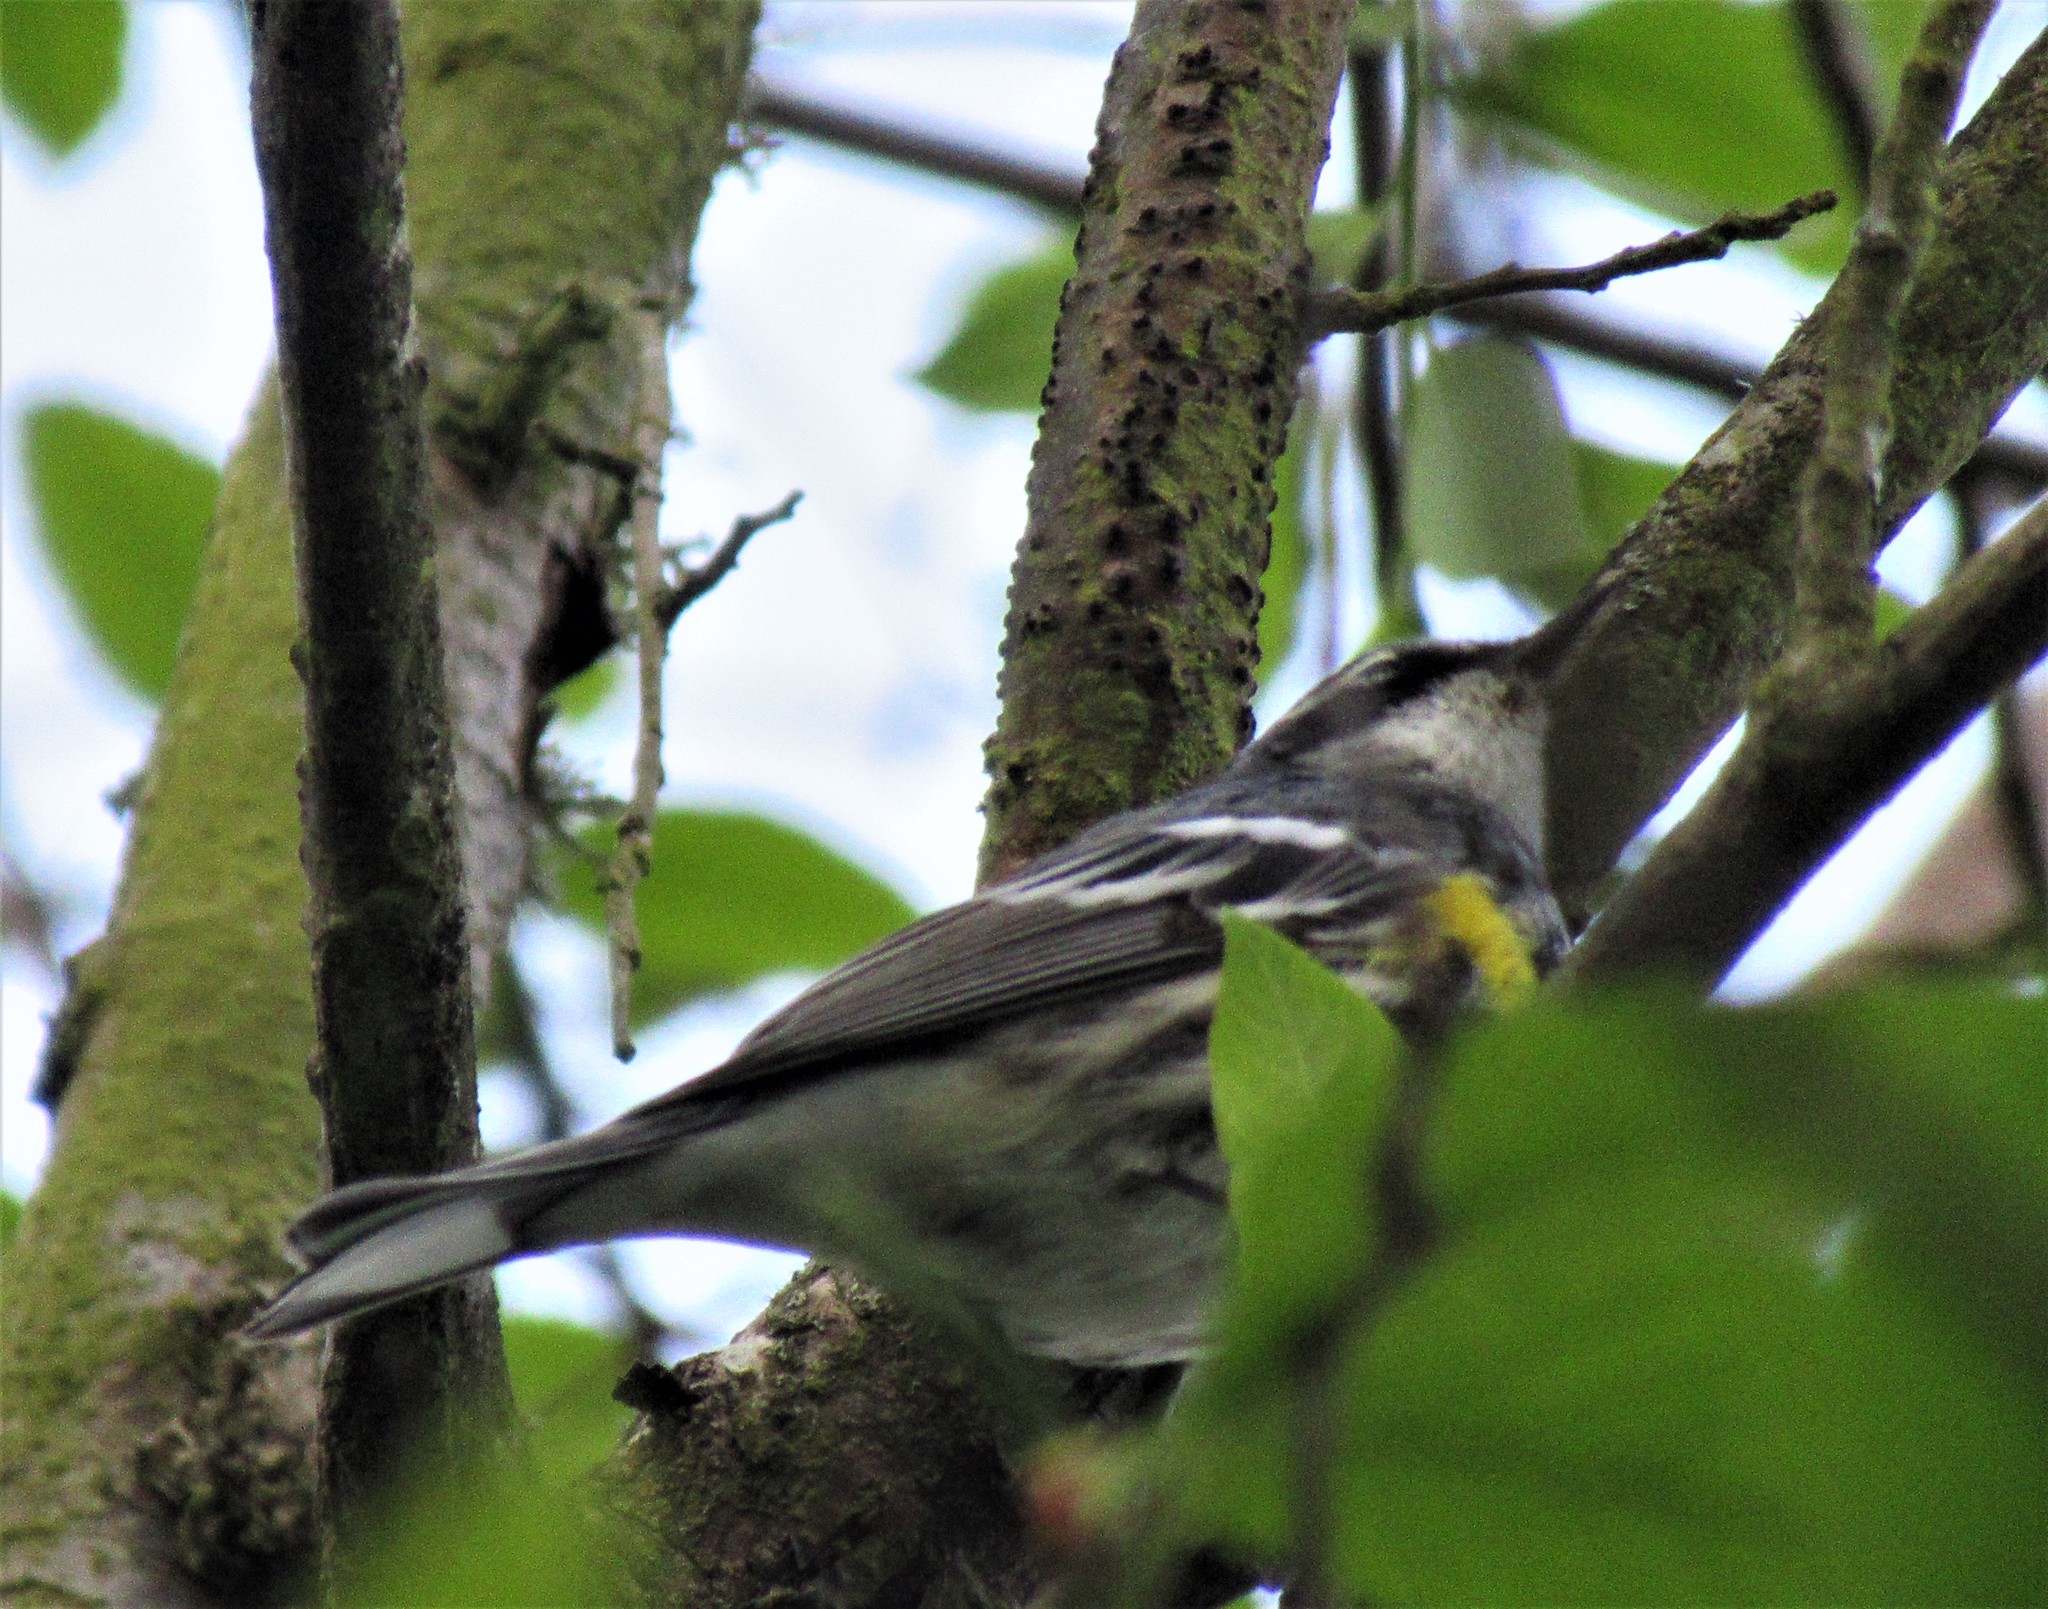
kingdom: Animalia
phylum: Chordata
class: Aves
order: Passeriformes
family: Parulidae
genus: Setophaga
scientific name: Setophaga coronata
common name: Myrtle warbler
